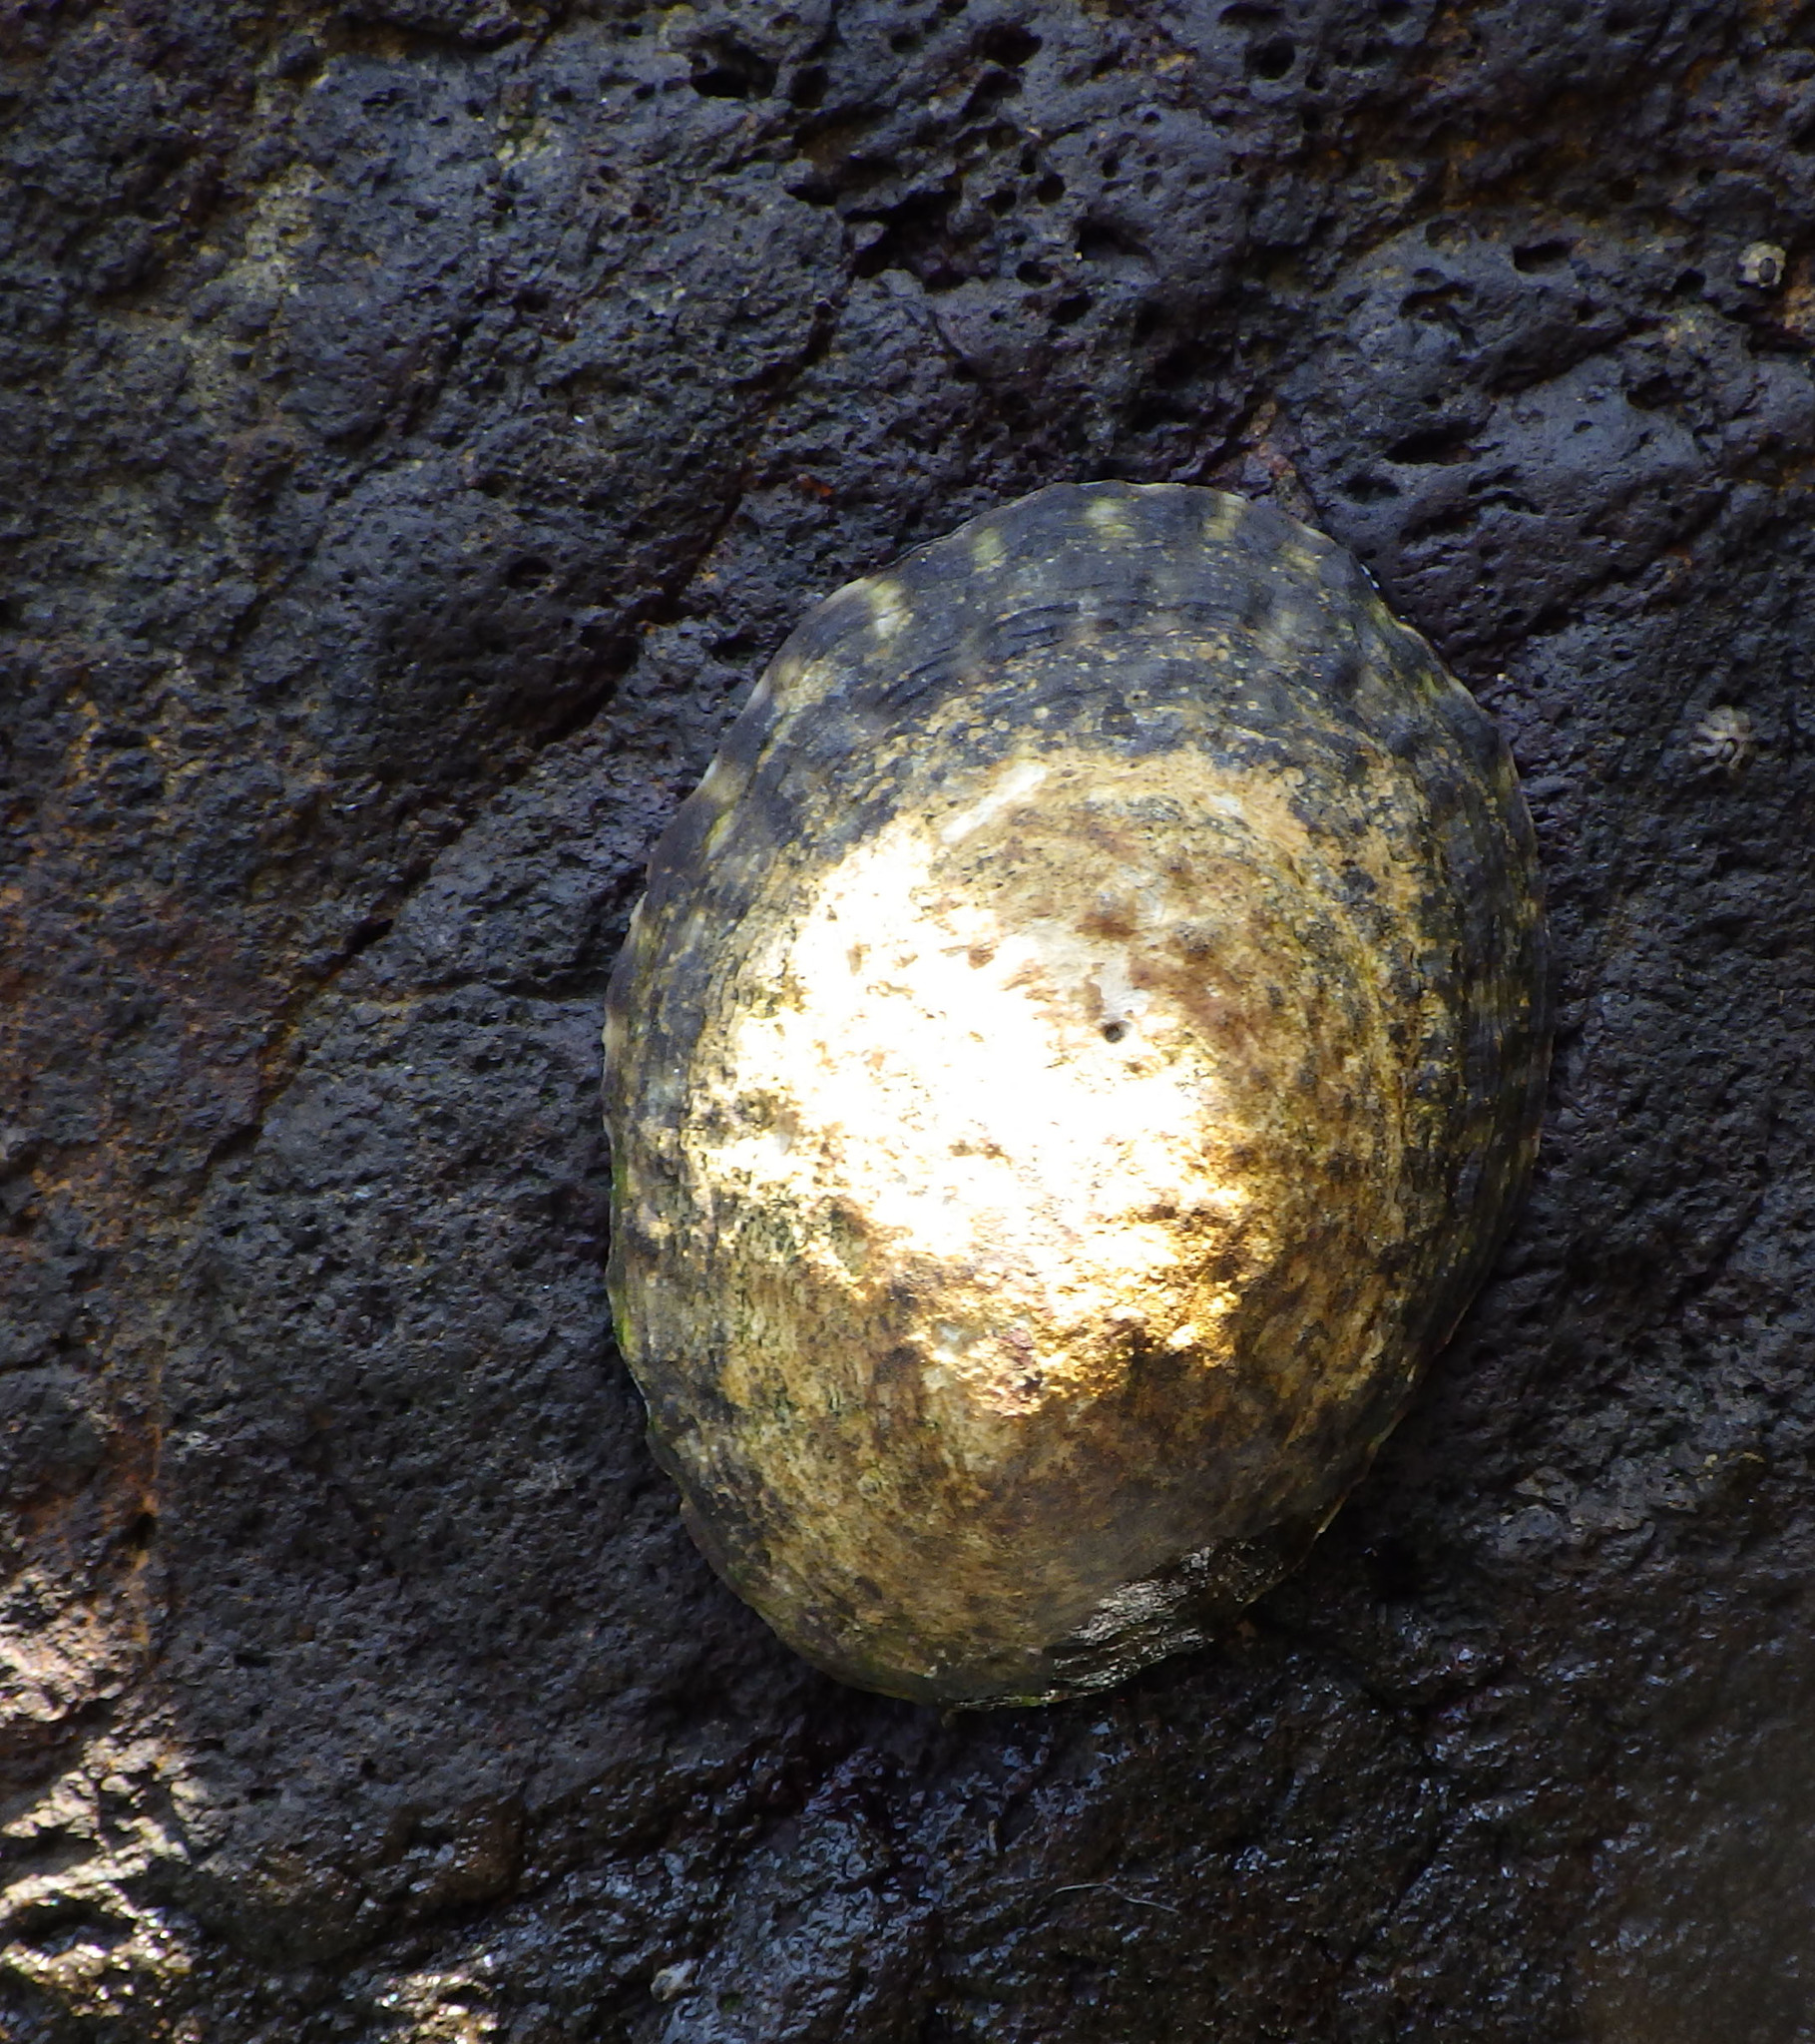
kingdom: Animalia
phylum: Mollusca
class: Gastropoda
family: Lottiidae
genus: Lottia
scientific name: Lottia gigantea
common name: Owl limpet
